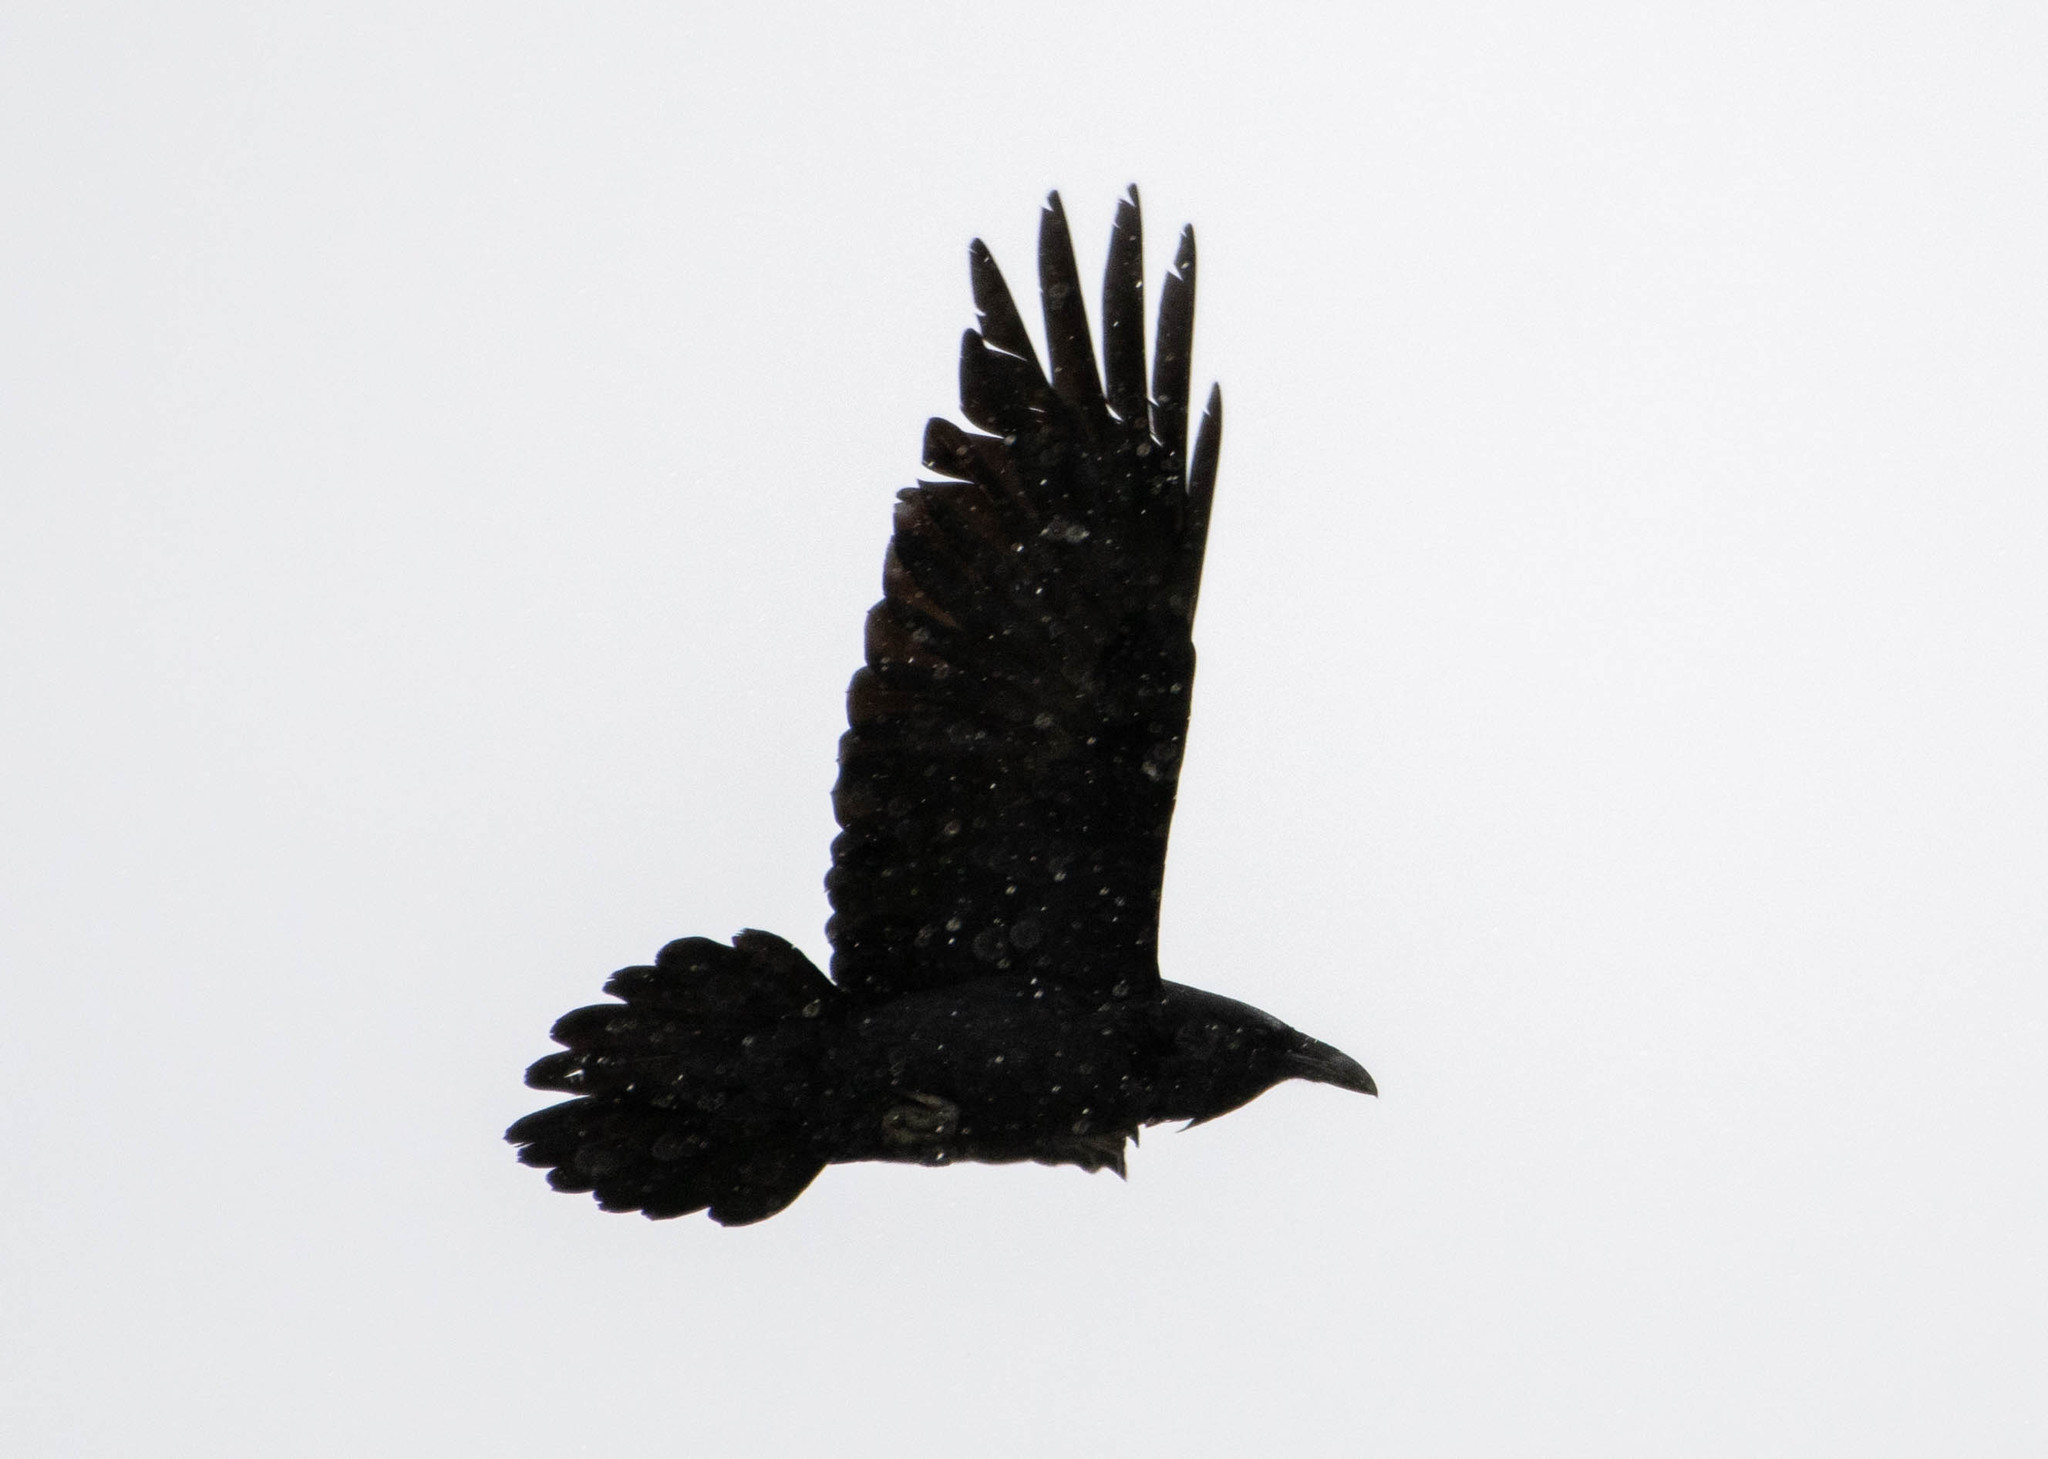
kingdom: Animalia
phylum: Chordata
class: Aves
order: Passeriformes
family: Corvidae
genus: Corvus
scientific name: Corvus corax
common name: Common raven
